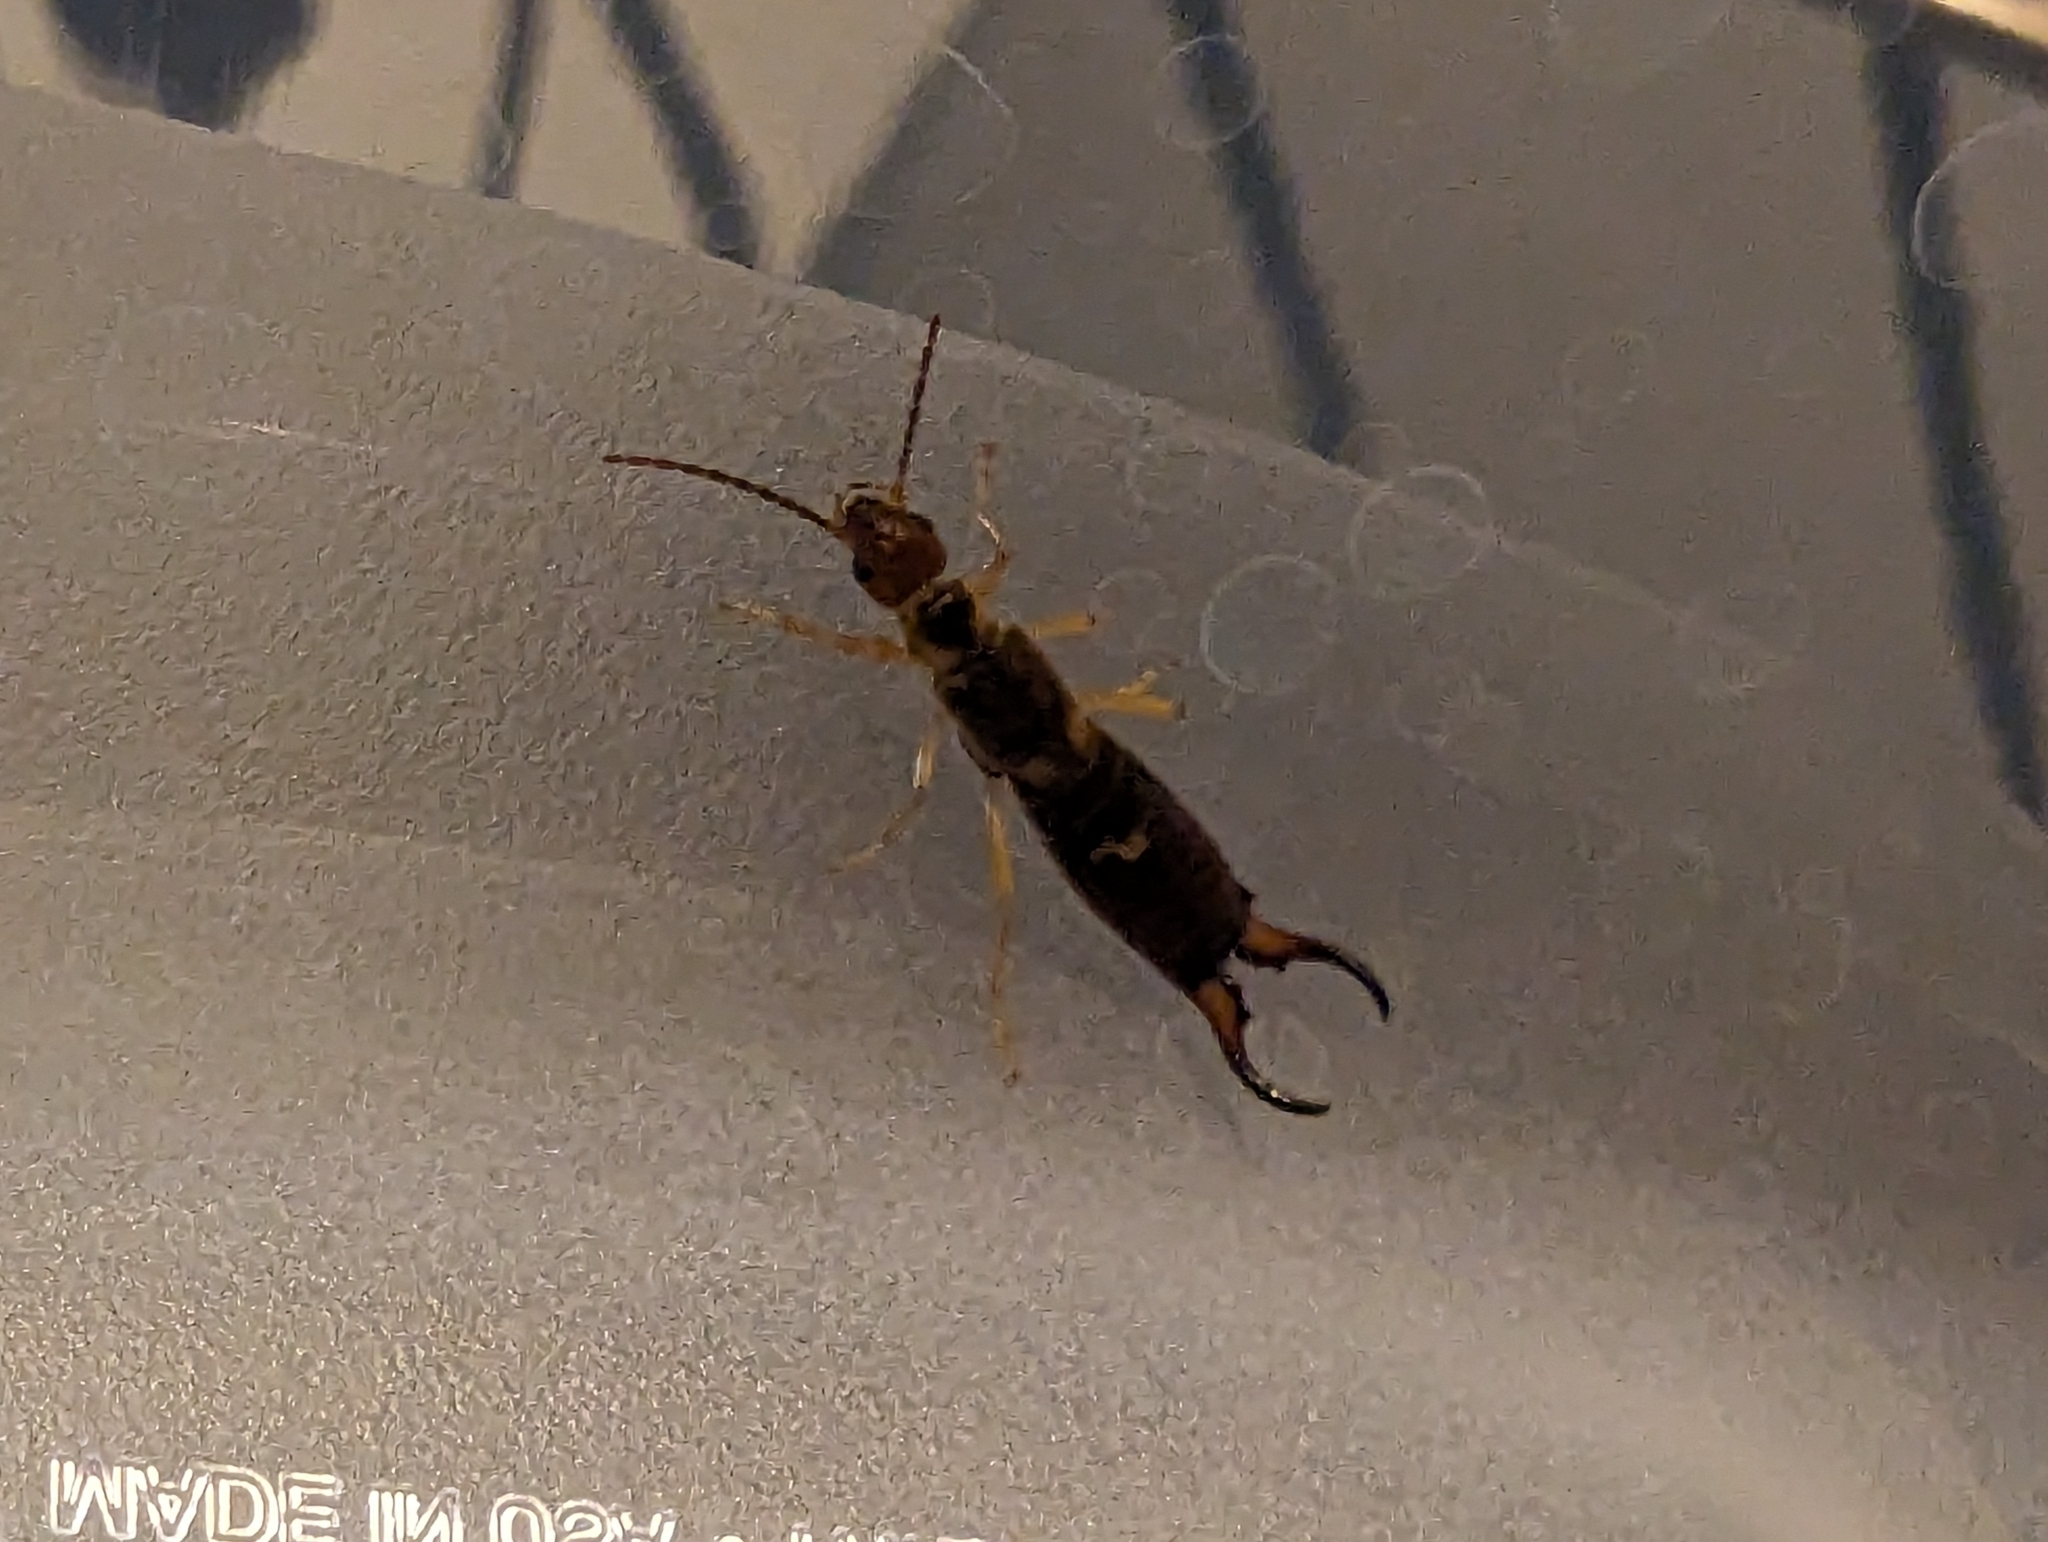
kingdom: Animalia
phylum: Arthropoda
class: Insecta
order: Dermaptera
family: Forficulidae
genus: Forficula
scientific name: Forficula dentata
